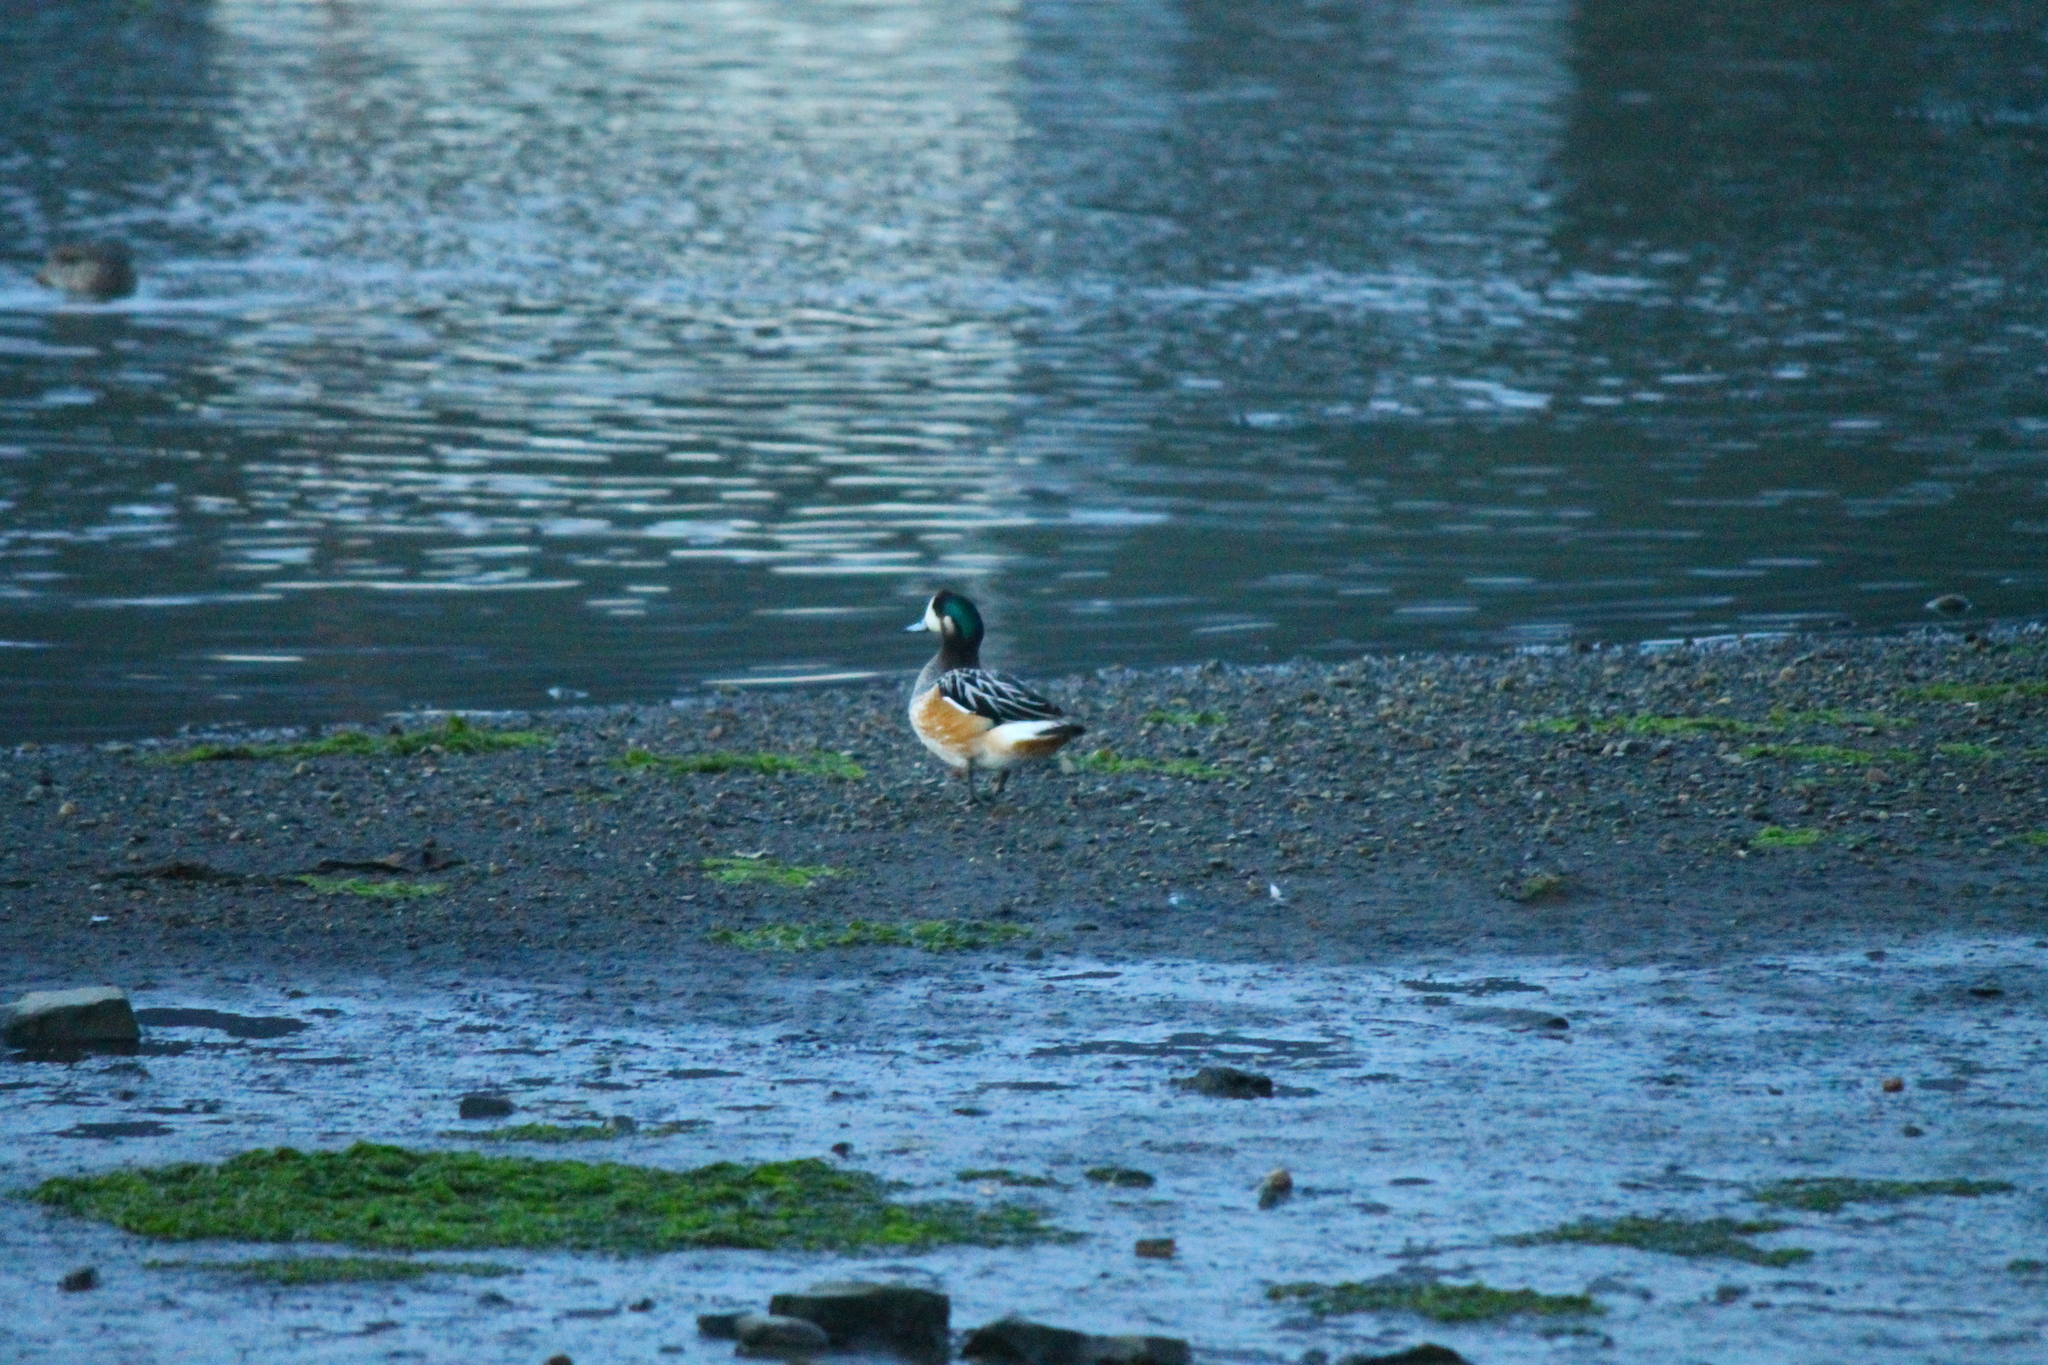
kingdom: Animalia
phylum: Chordata
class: Aves
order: Anseriformes
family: Anatidae
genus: Mareca
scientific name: Mareca sibilatrix
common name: Chiloe wigeon
